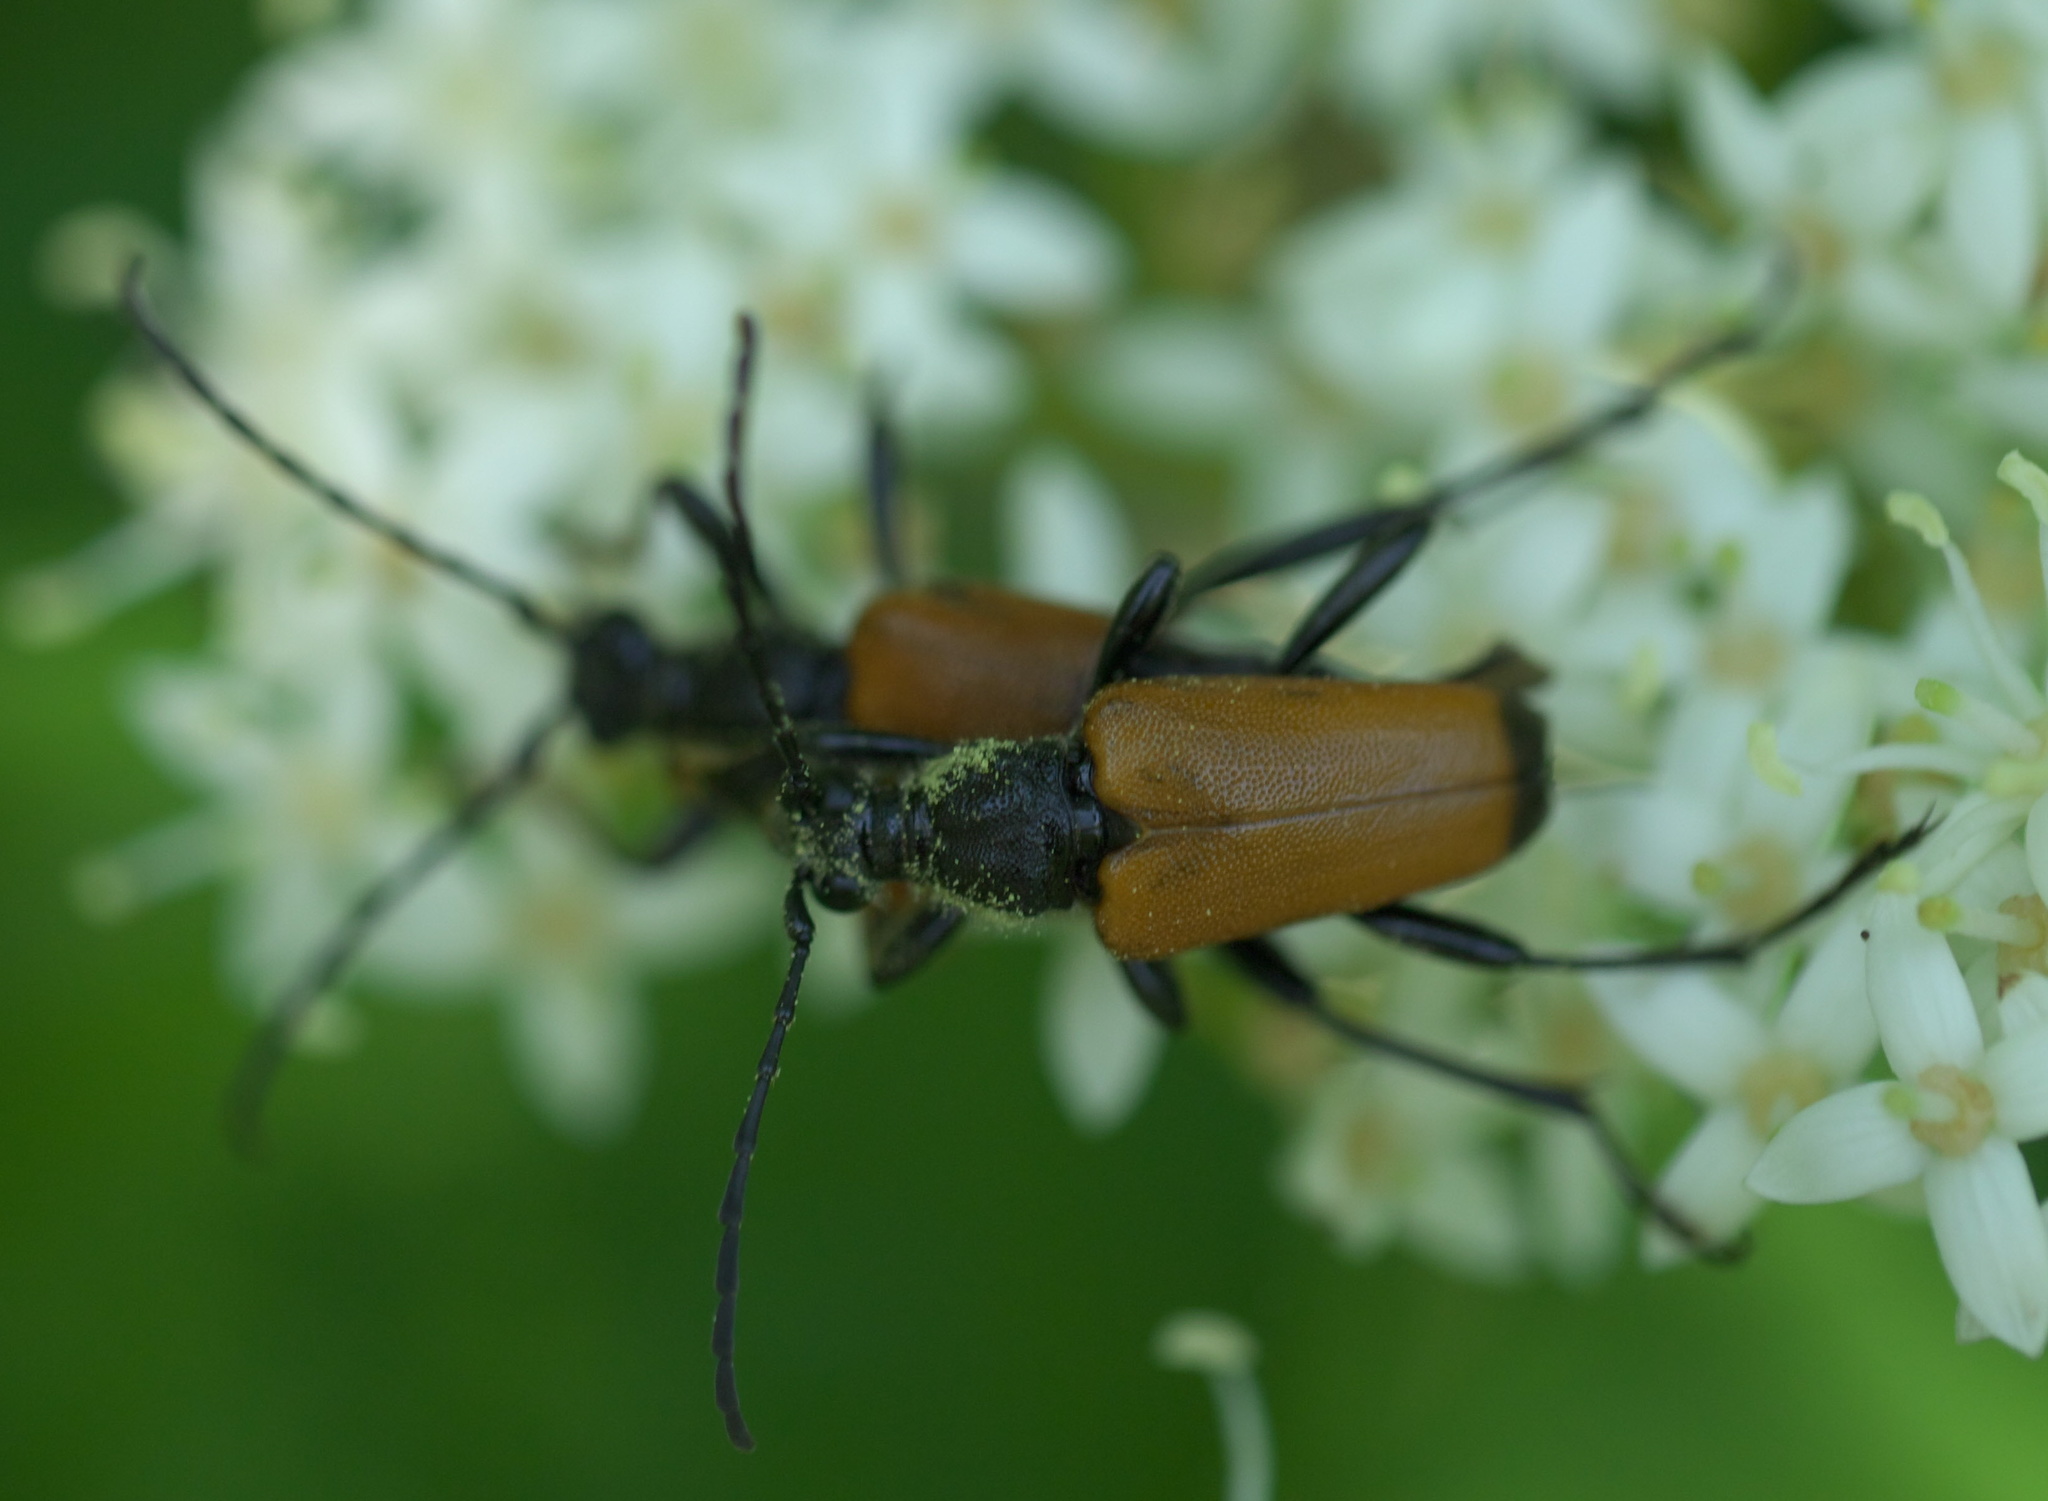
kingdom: Animalia
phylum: Arthropoda
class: Insecta
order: Coleoptera
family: Cerambycidae
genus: Trigonarthris
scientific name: Trigonarthris atrata
